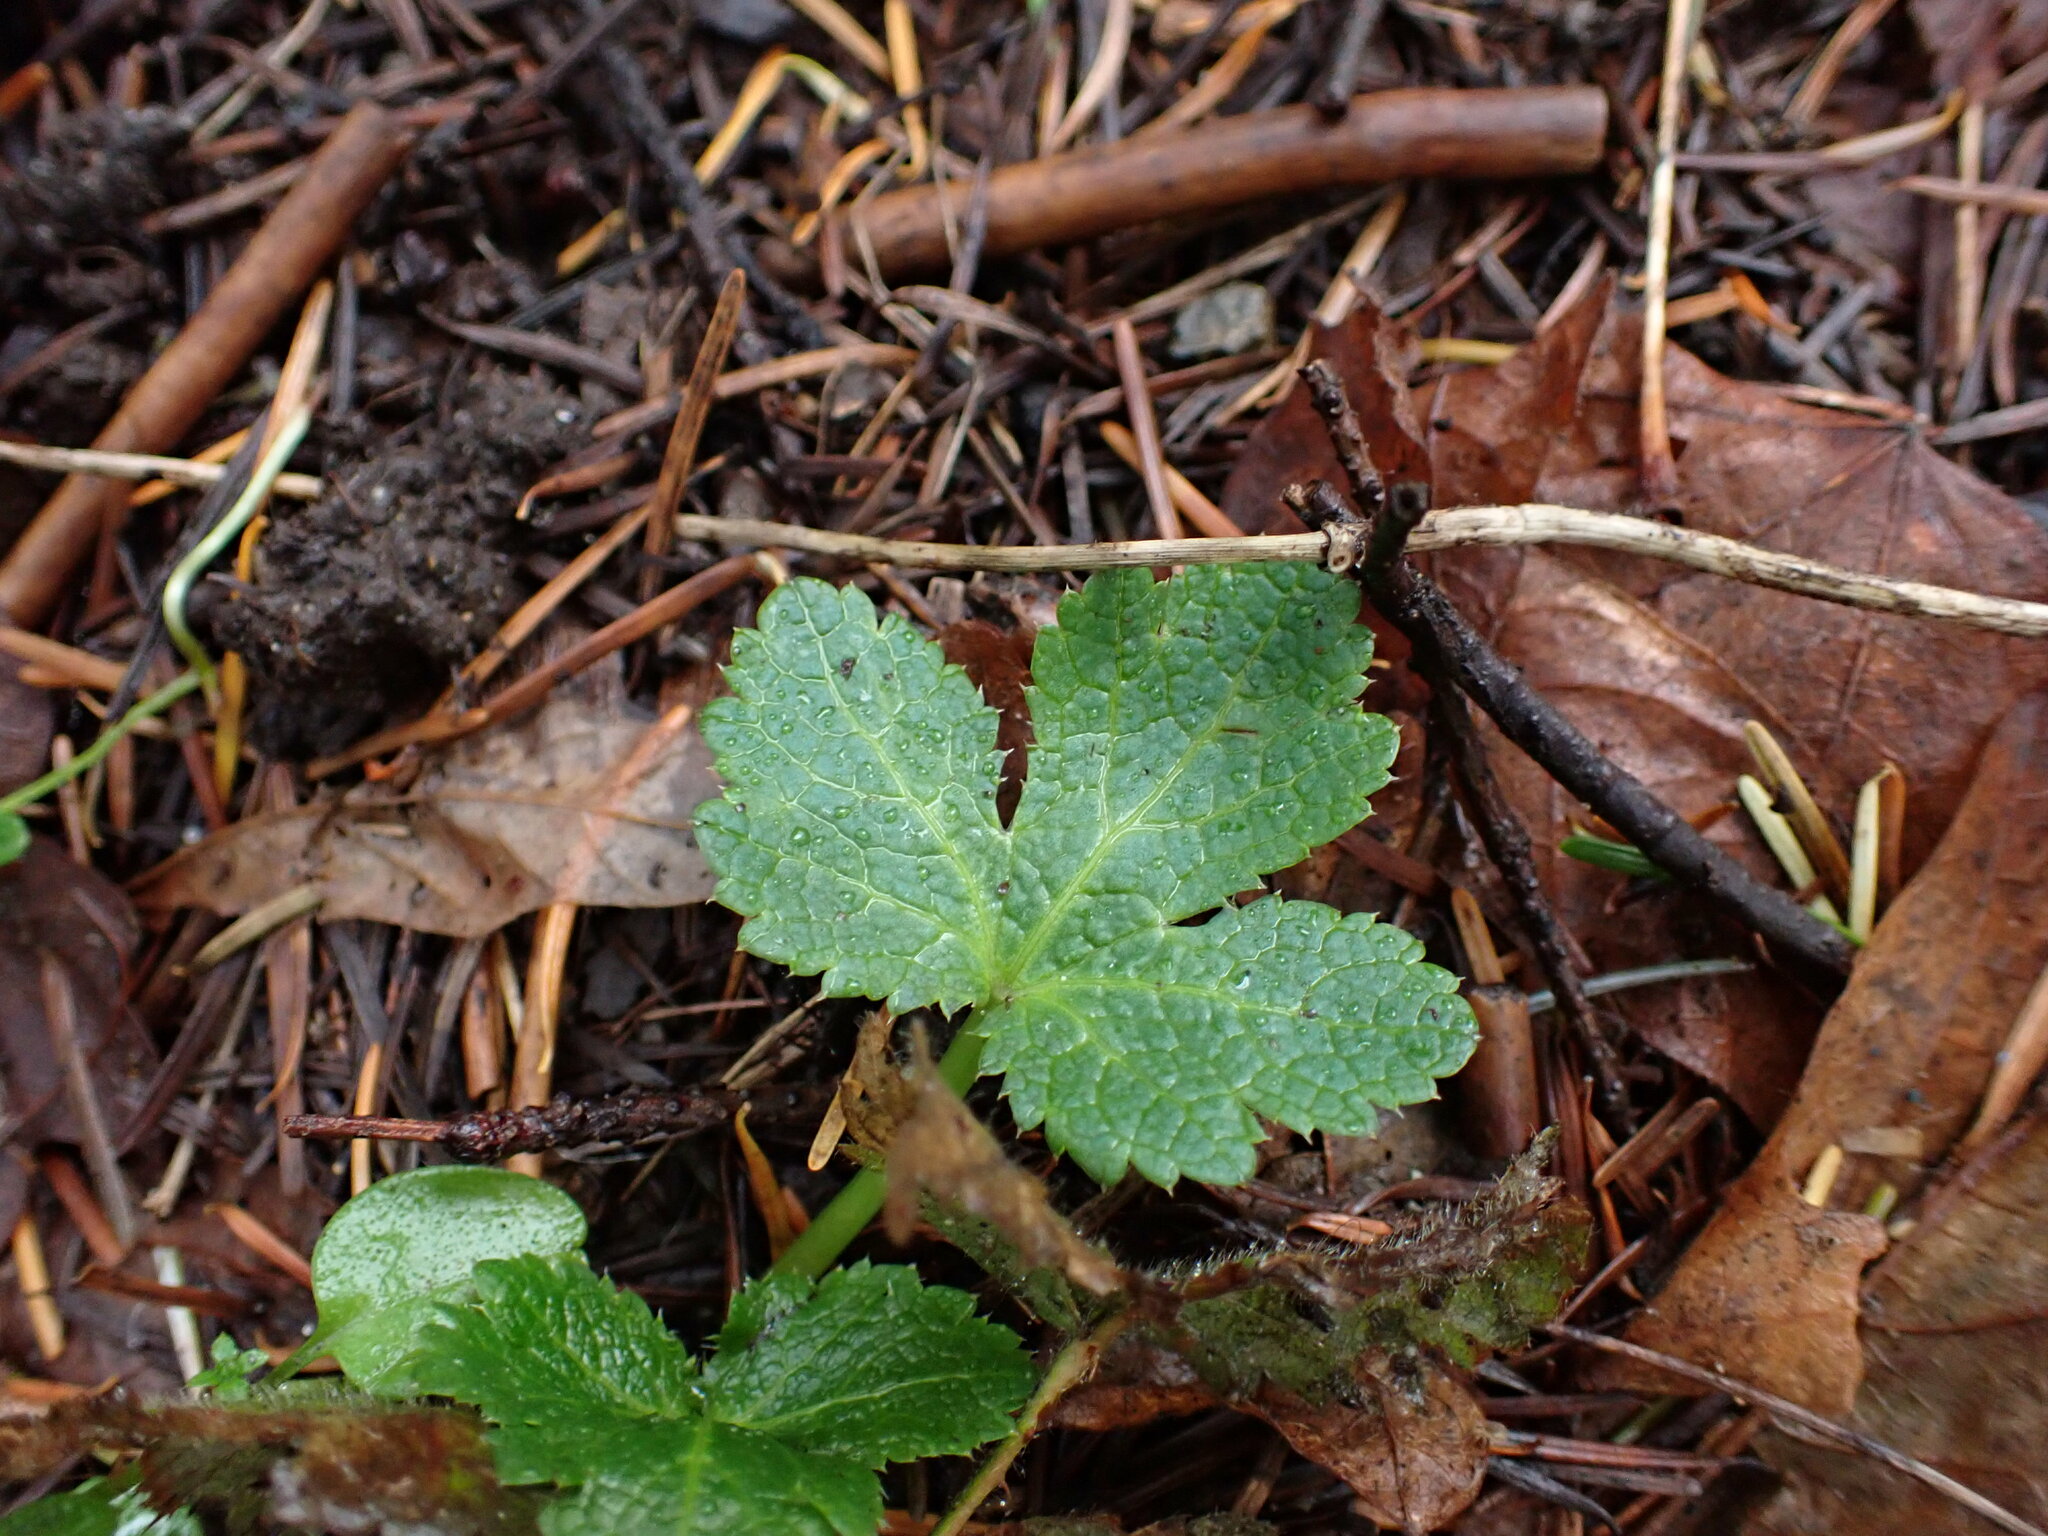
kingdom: Plantae
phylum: Tracheophyta
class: Magnoliopsida
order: Apiales
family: Apiaceae
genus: Sanicula
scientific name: Sanicula crassicaulis
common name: Western snakeroot
